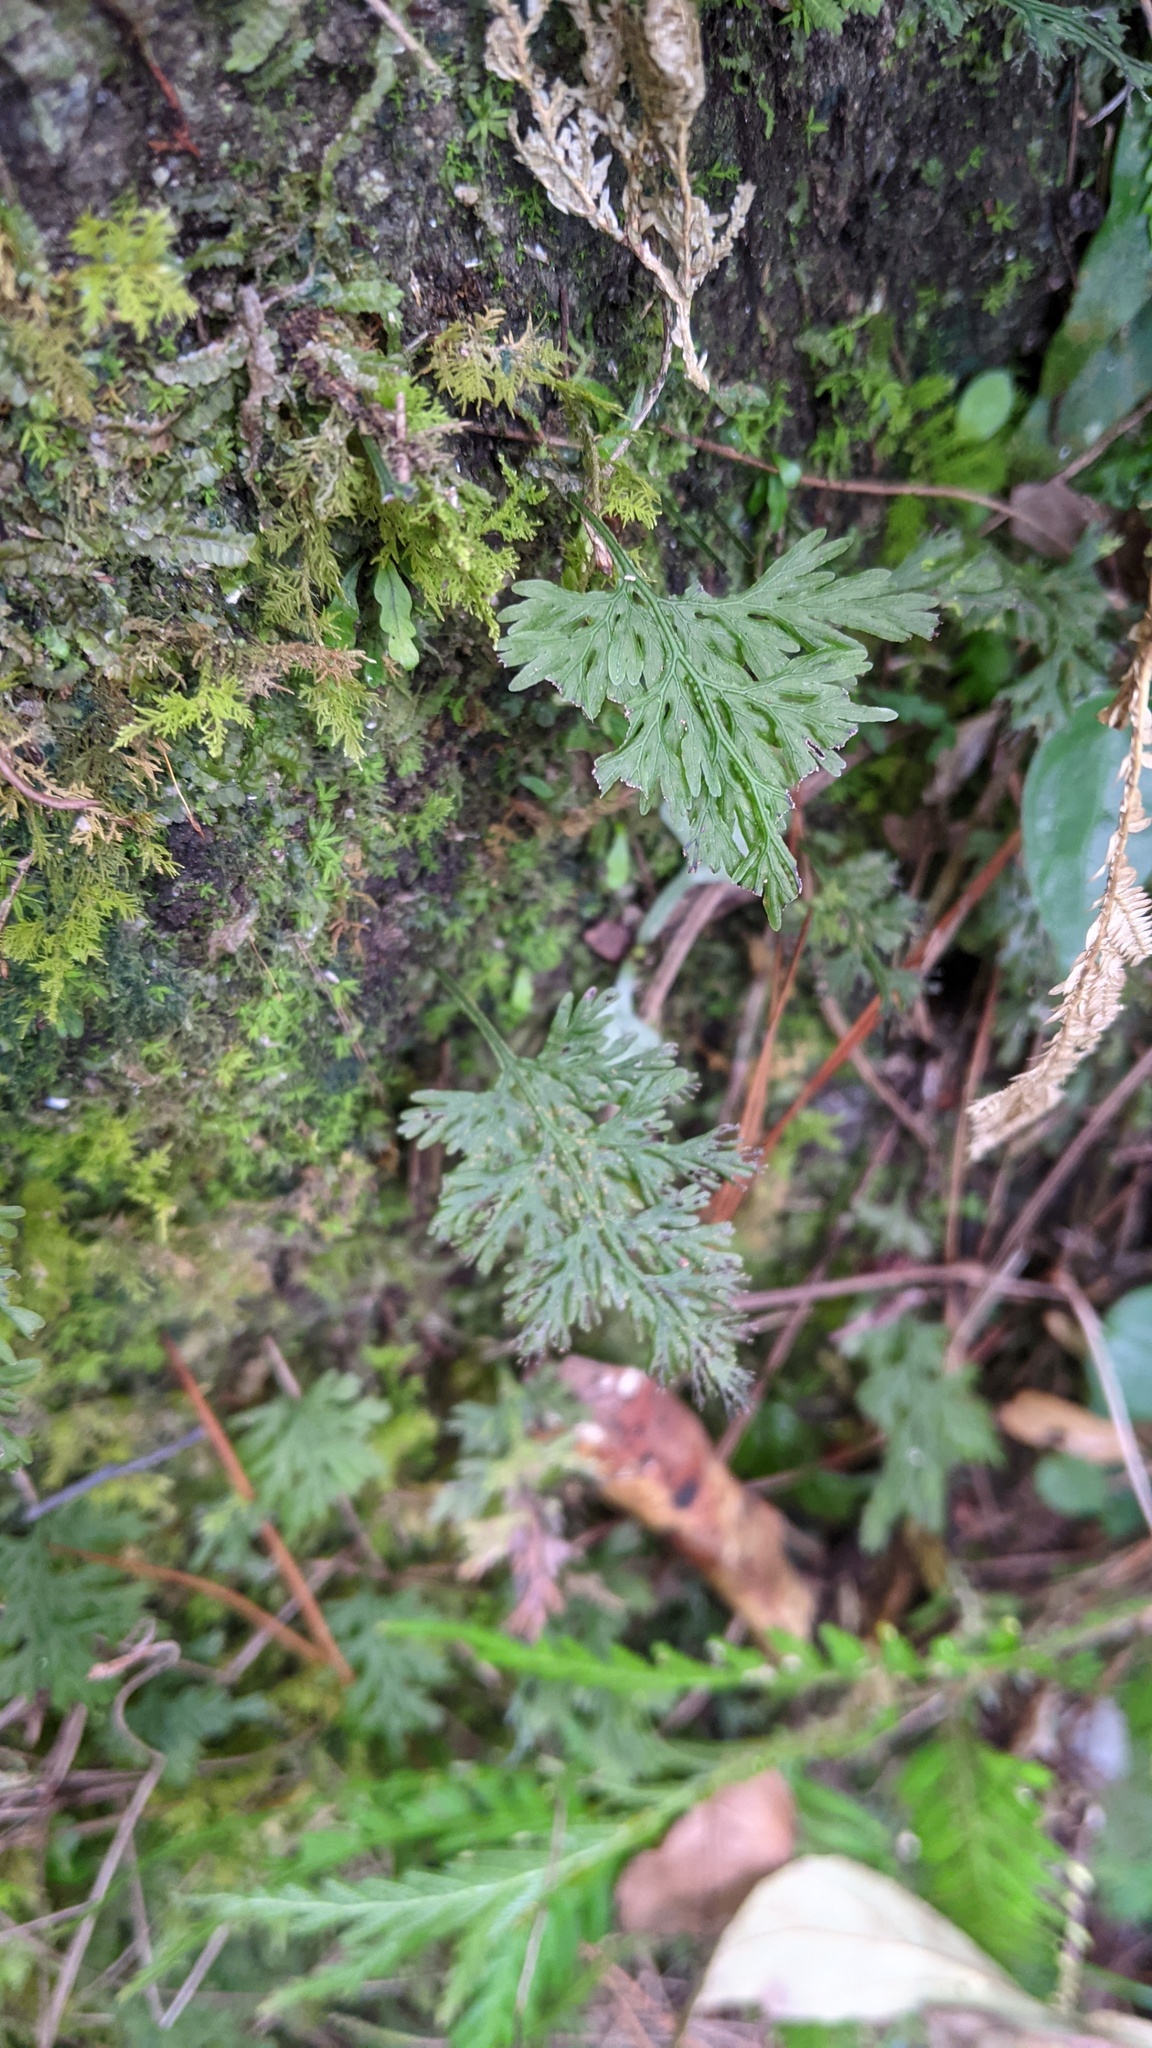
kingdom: Plantae
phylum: Tracheophyta
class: Polypodiopsida
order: Hymenophyllales
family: Hymenophyllaceae
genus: Crepidomanes
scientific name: Crepidomanes latealatum
